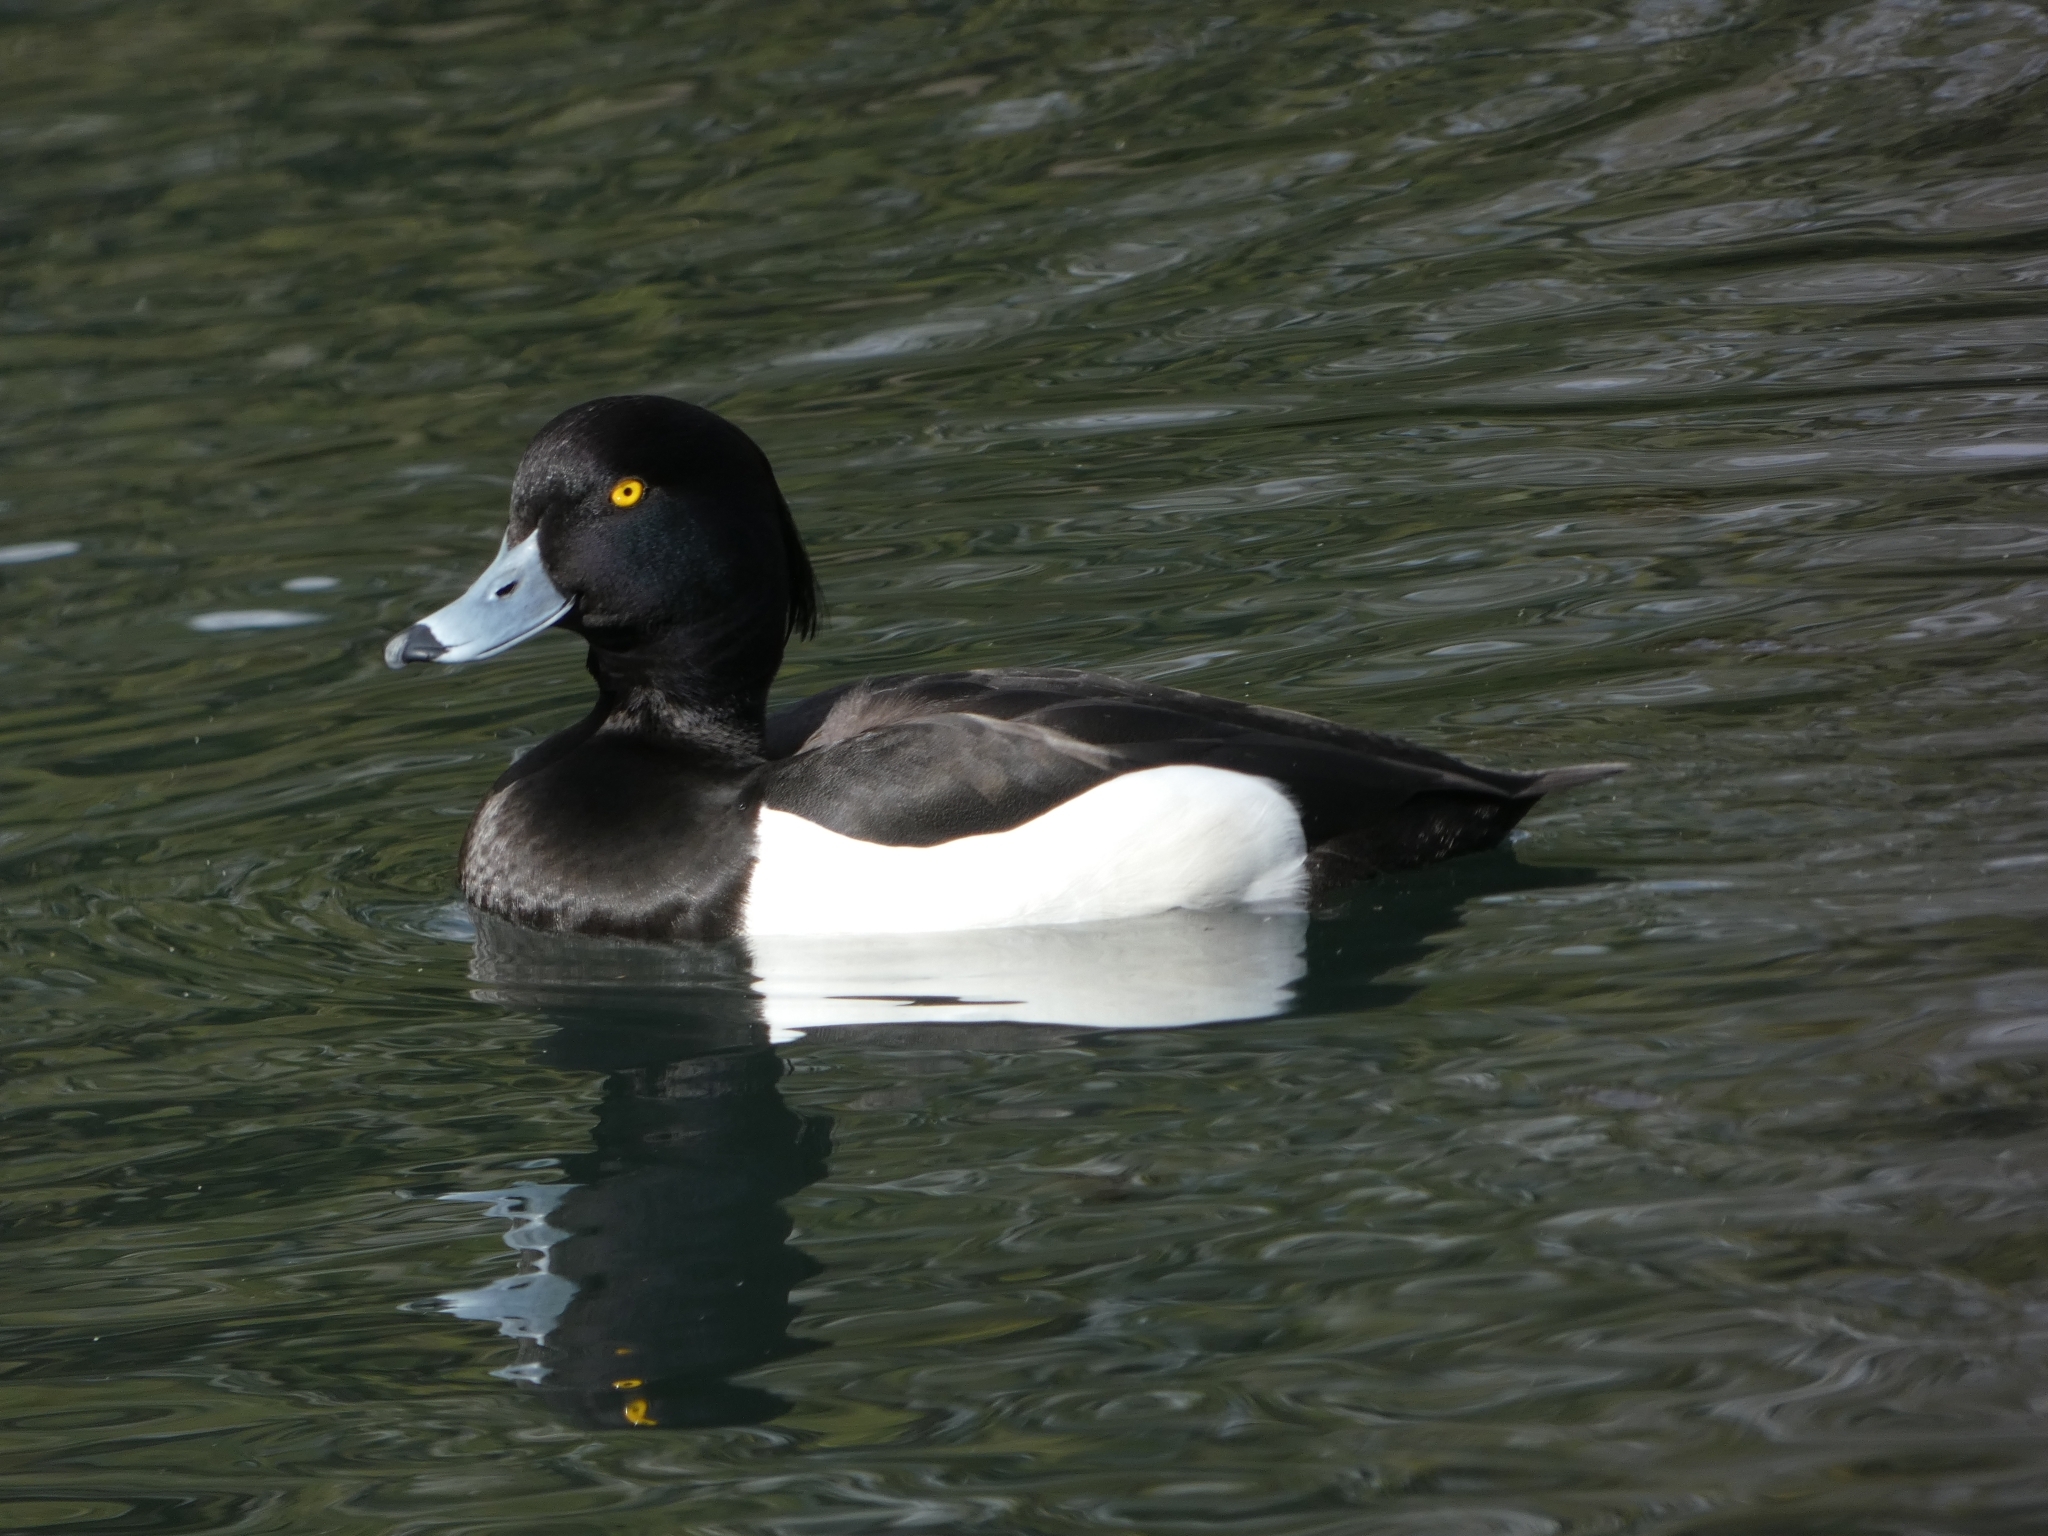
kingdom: Animalia
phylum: Chordata
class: Aves
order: Anseriformes
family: Anatidae
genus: Aythya
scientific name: Aythya fuligula
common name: Tufted duck
